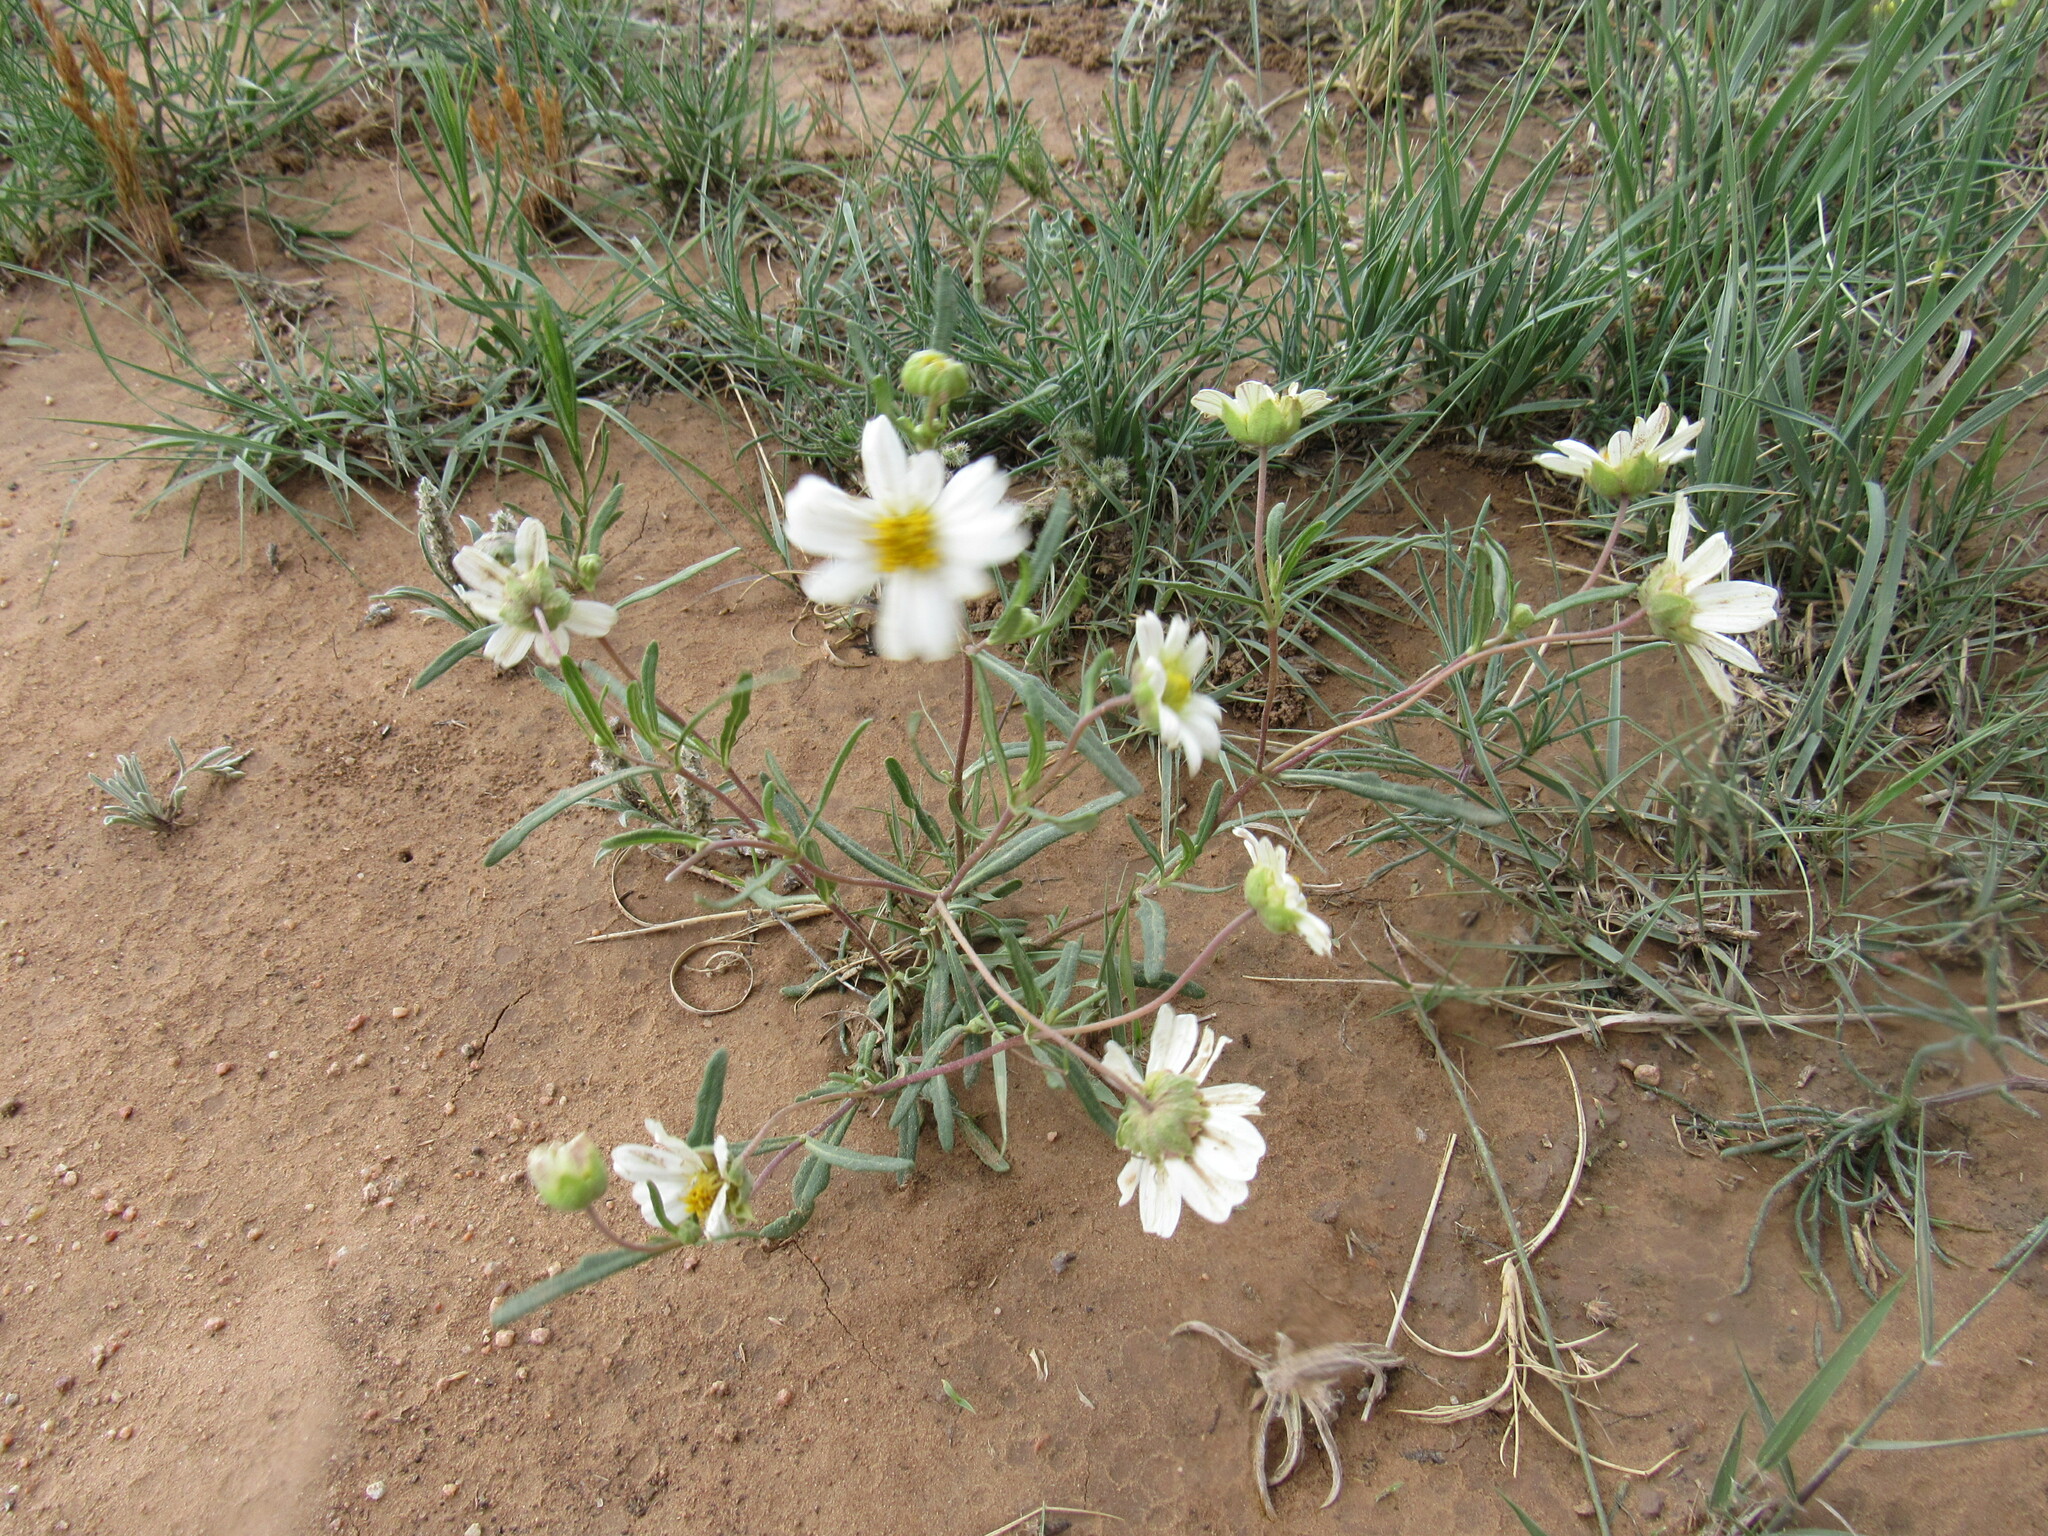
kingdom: Plantae
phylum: Tracheophyta
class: Magnoliopsida
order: Asterales
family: Asteraceae
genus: Melampodium
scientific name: Melampodium leucanthum
